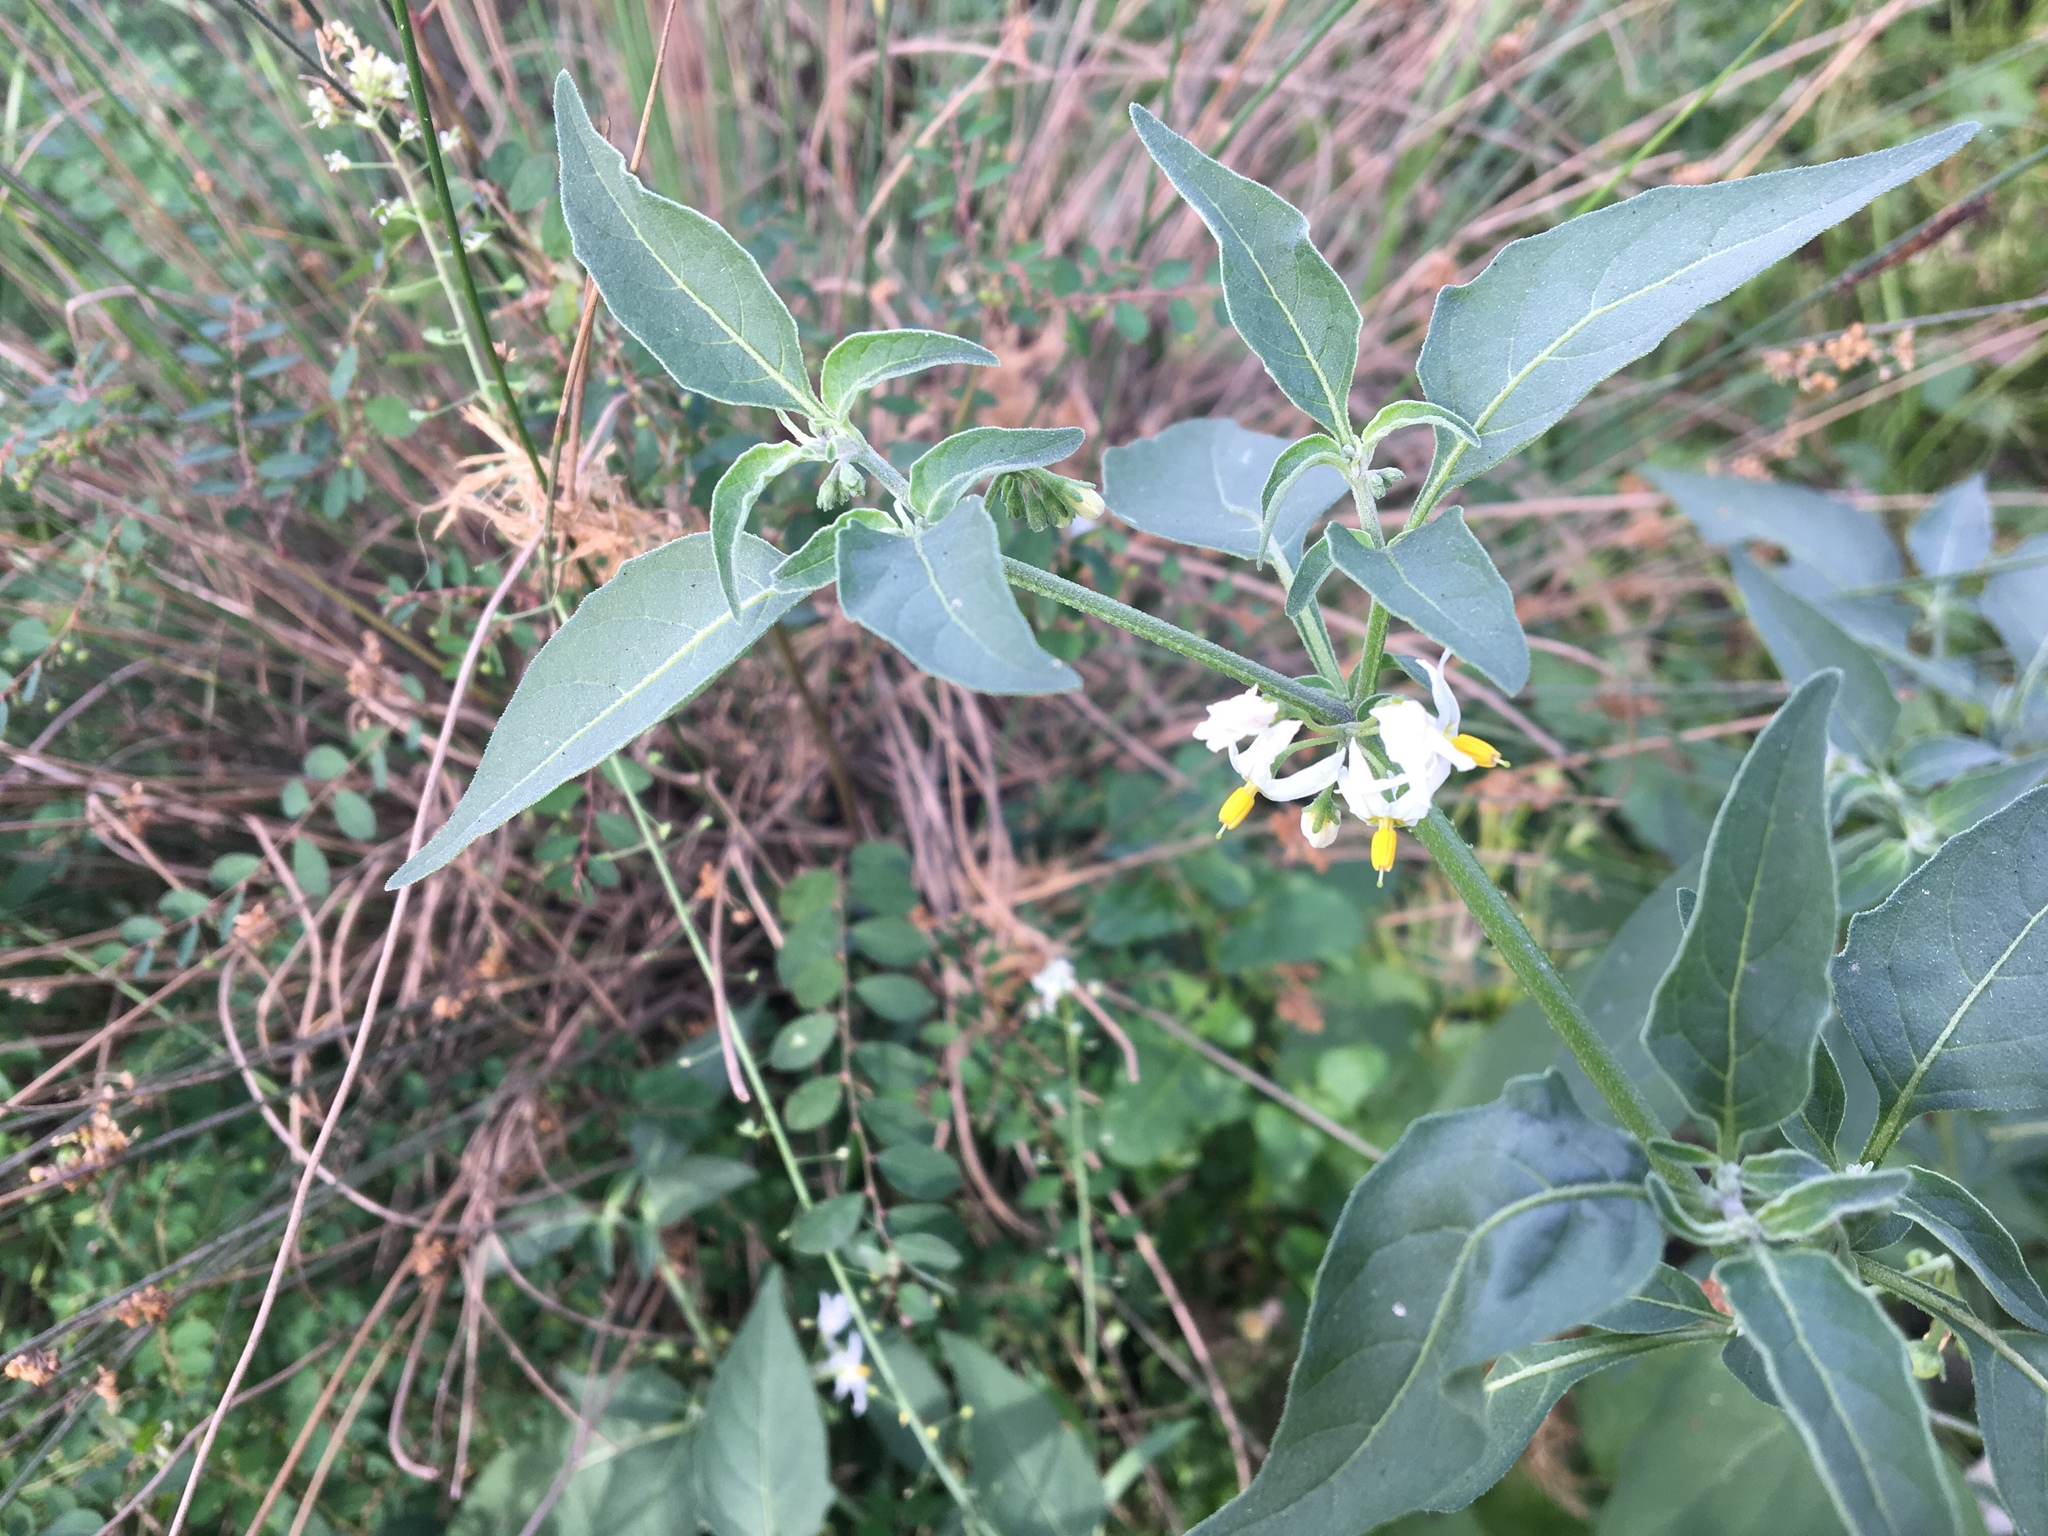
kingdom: Plantae
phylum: Tracheophyta
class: Magnoliopsida
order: Solanales
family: Solanaceae
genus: Solanum
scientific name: Solanum chenopodioides
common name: Tall nightshade
